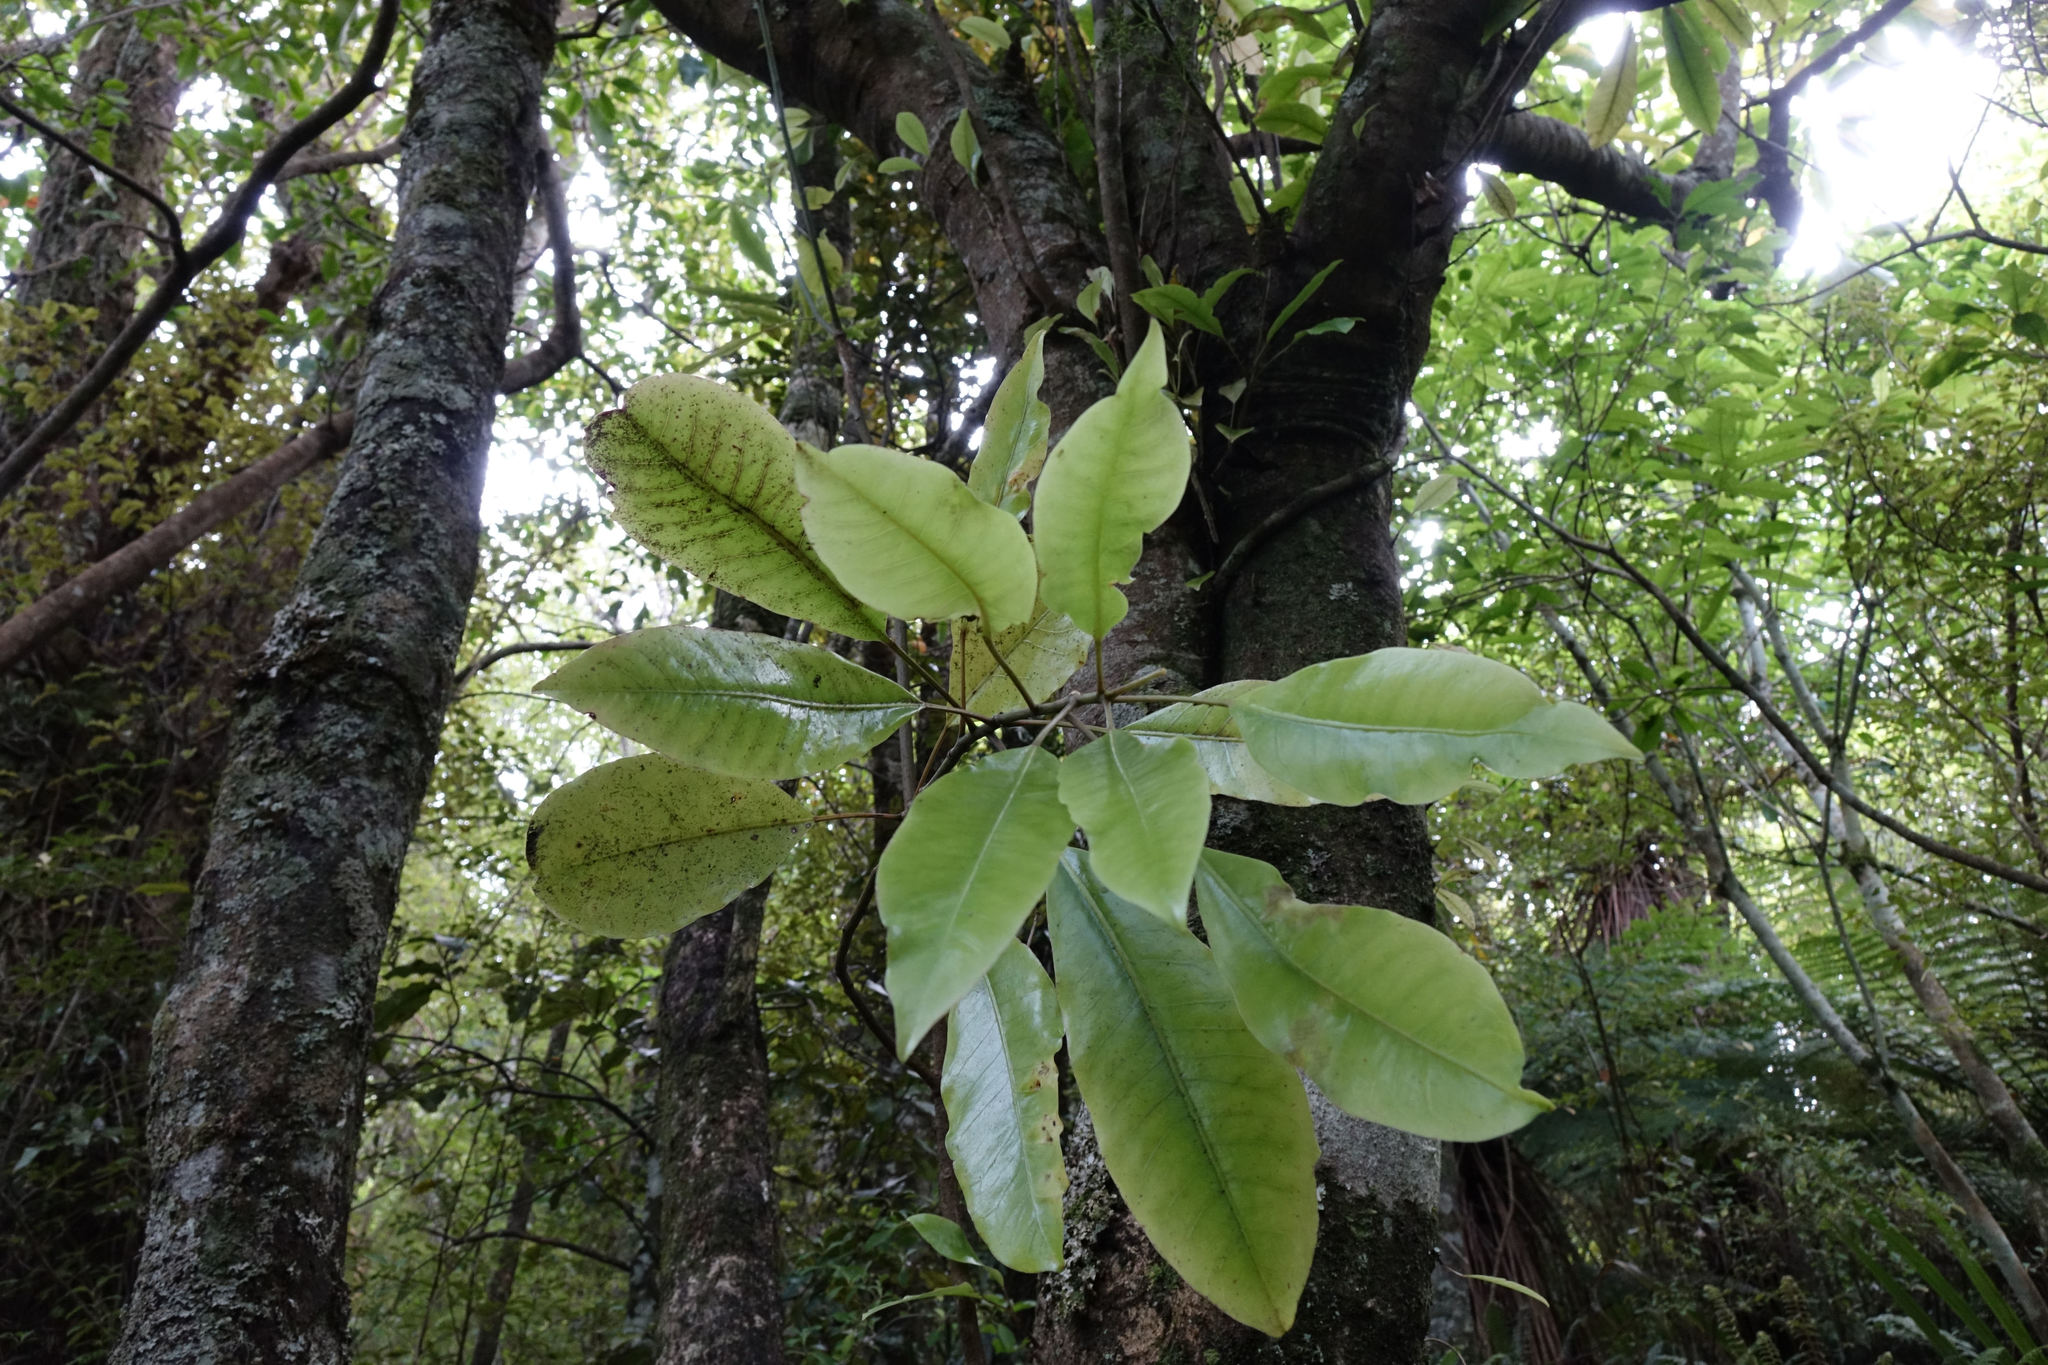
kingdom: Plantae
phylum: Tracheophyta
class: Magnoliopsida
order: Apiales
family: Araliaceae
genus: Raukaua
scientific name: Raukaua edgerleyi
